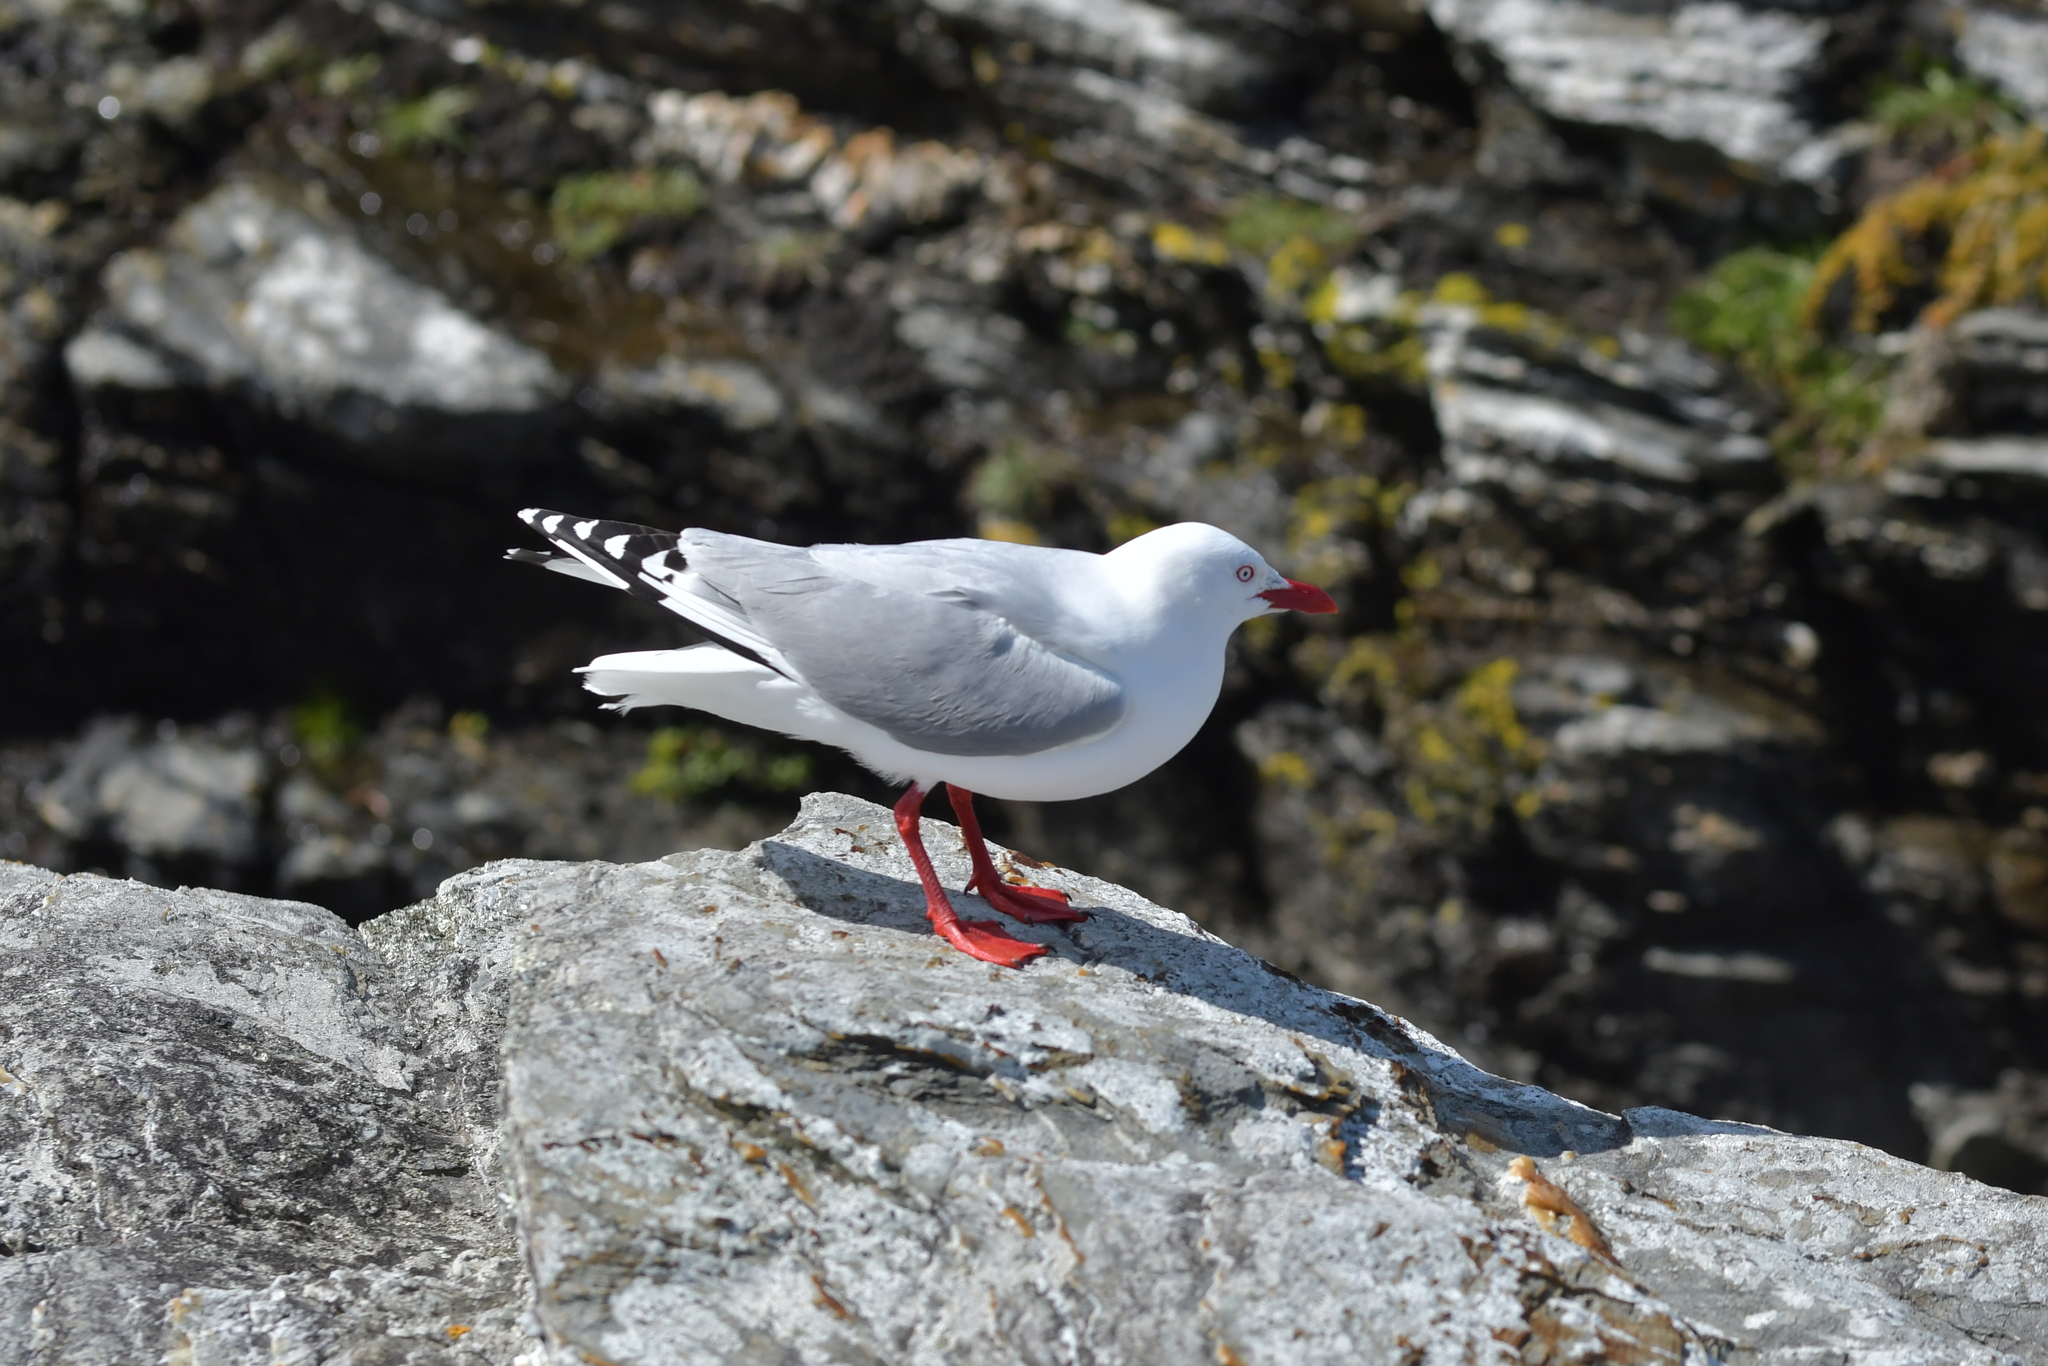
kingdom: Animalia
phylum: Chordata
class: Aves
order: Charadriiformes
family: Laridae
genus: Chroicocephalus
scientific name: Chroicocephalus novaehollandiae
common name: Silver gull
